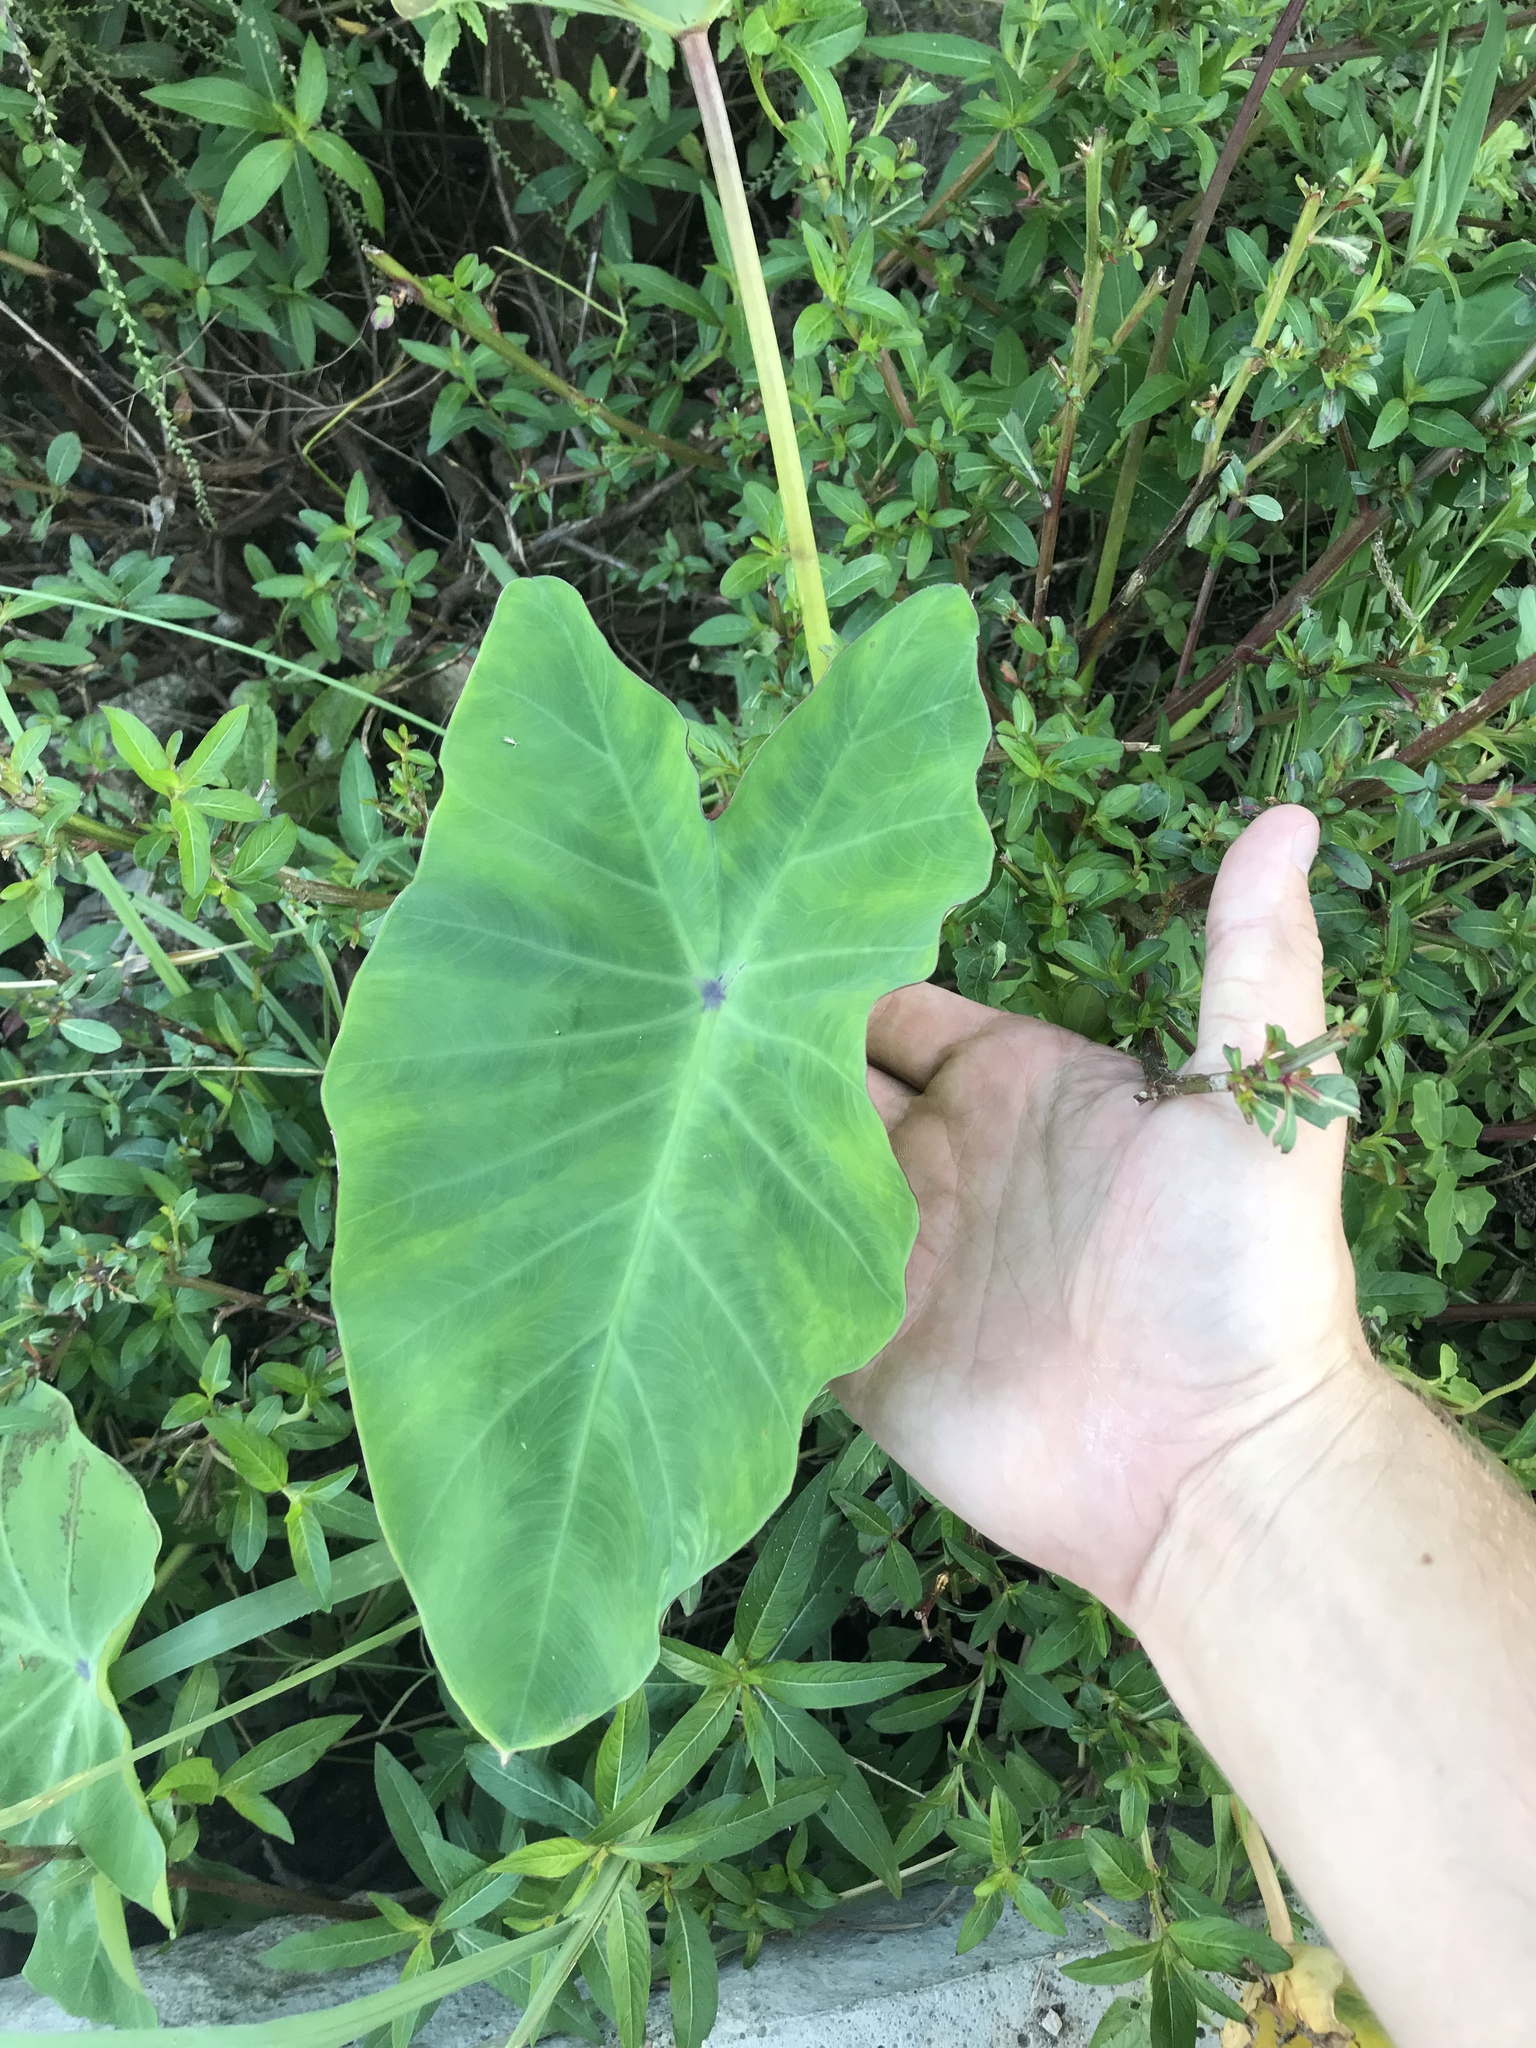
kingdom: Plantae
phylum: Tracheophyta
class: Liliopsida
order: Alismatales
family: Araceae
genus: Colocasia
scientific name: Colocasia esculenta
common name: Taro
